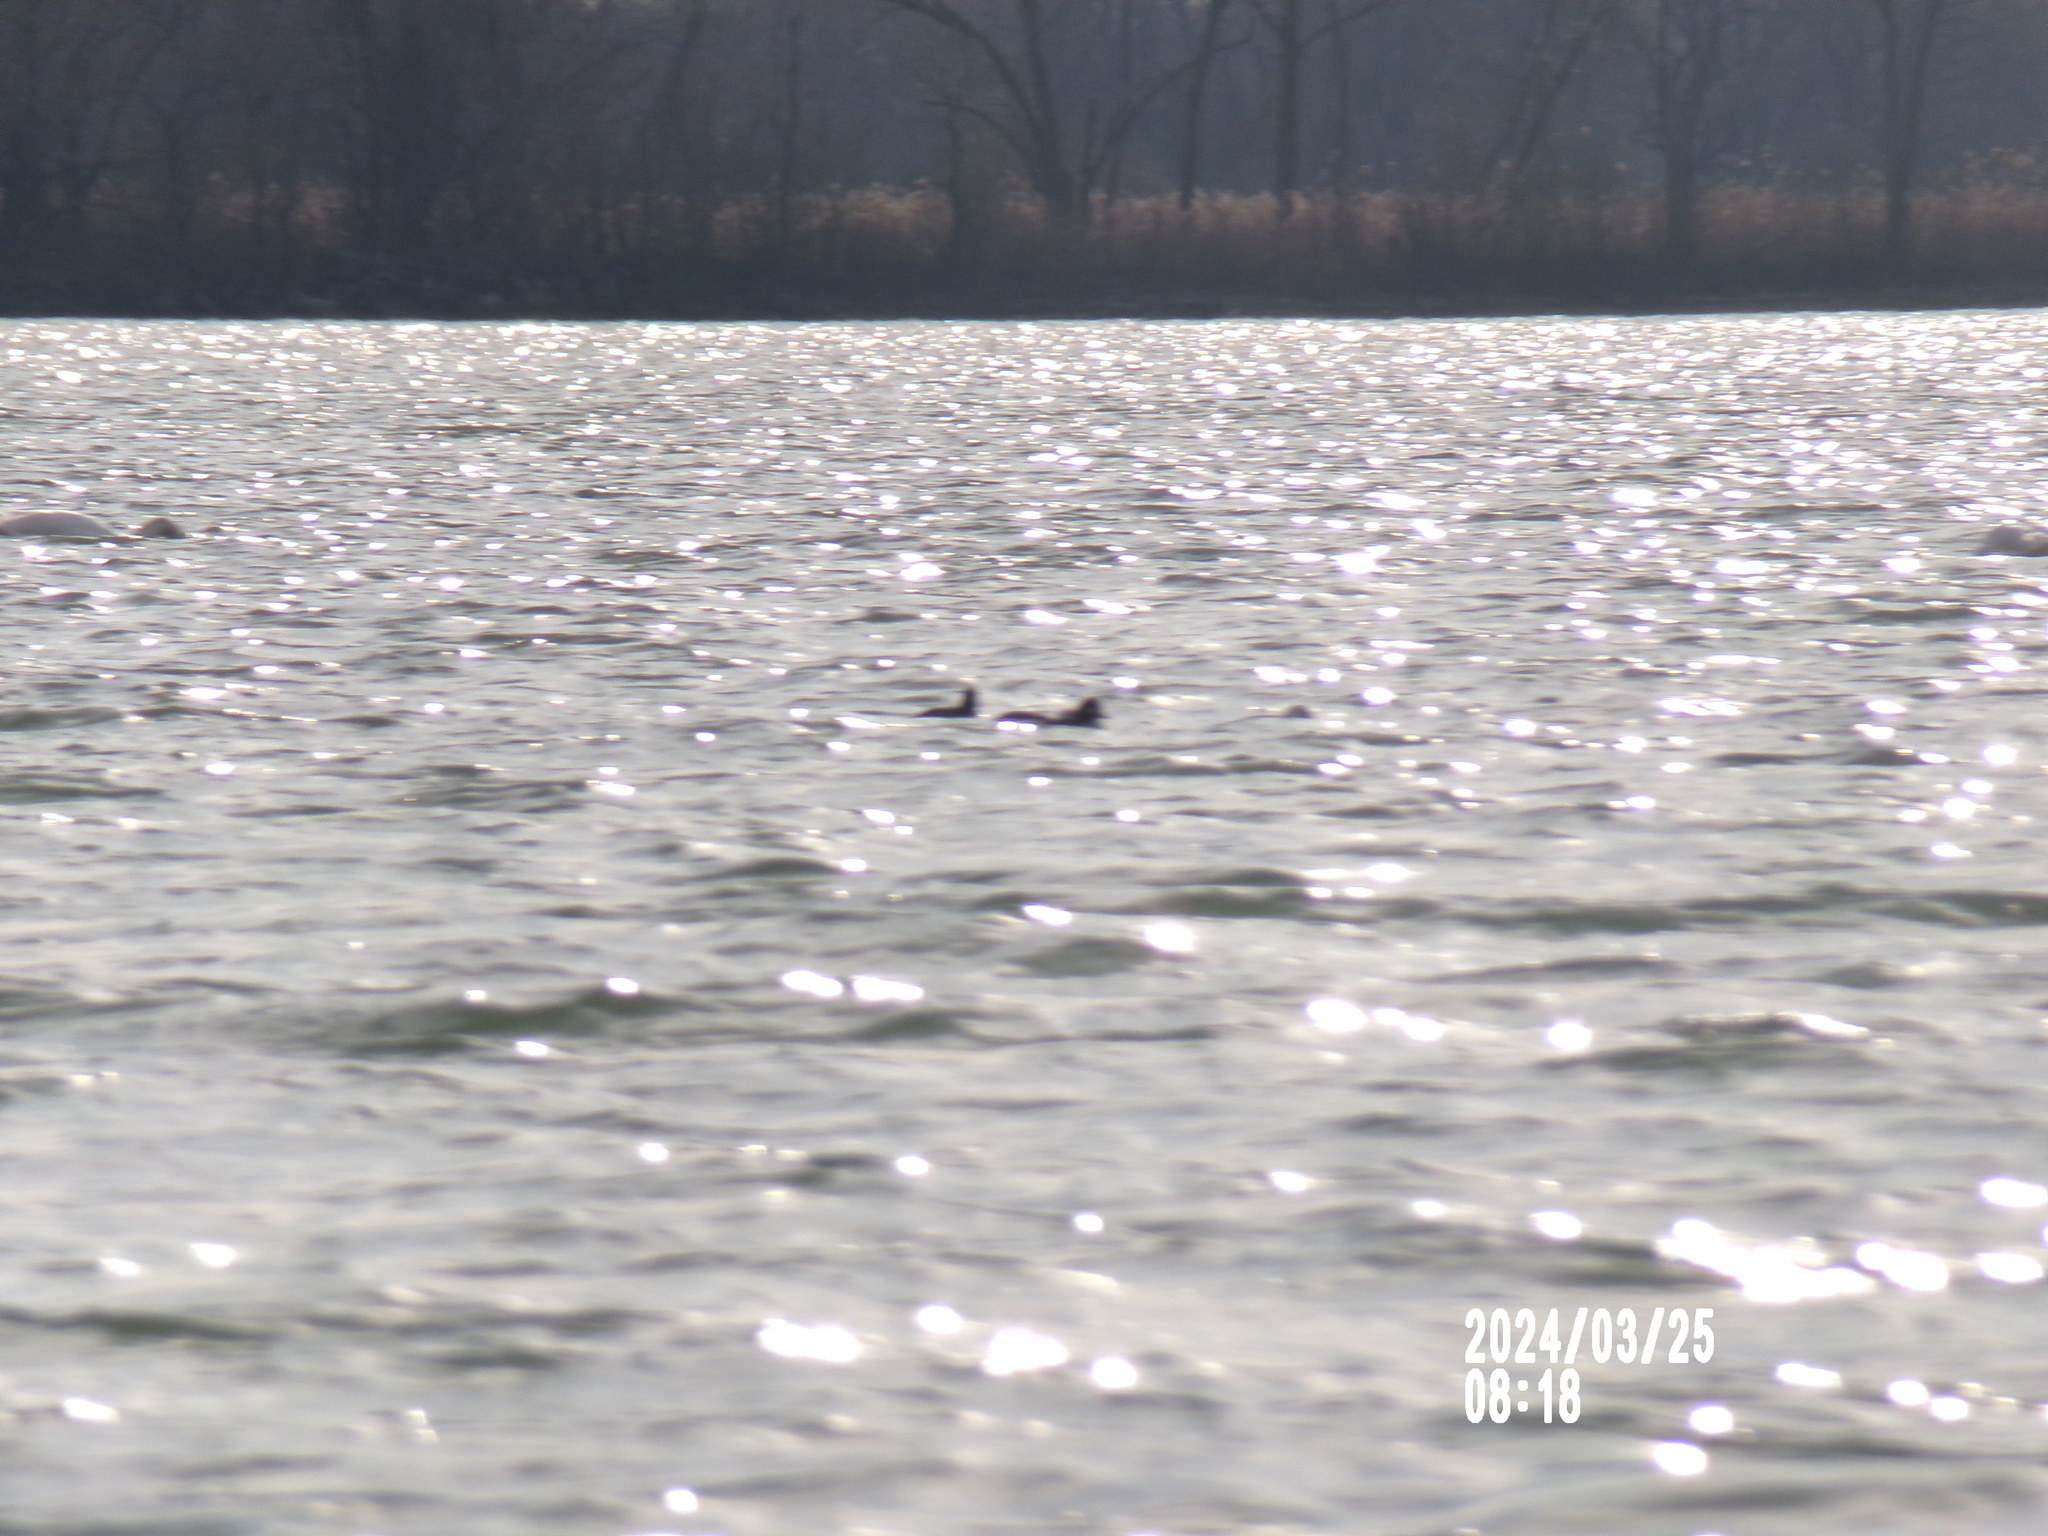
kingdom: Animalia
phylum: Chordata
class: Aves
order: Anseriformes
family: Anatidae
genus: Bucephala
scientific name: Bucephala albeola
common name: Bufflehead
